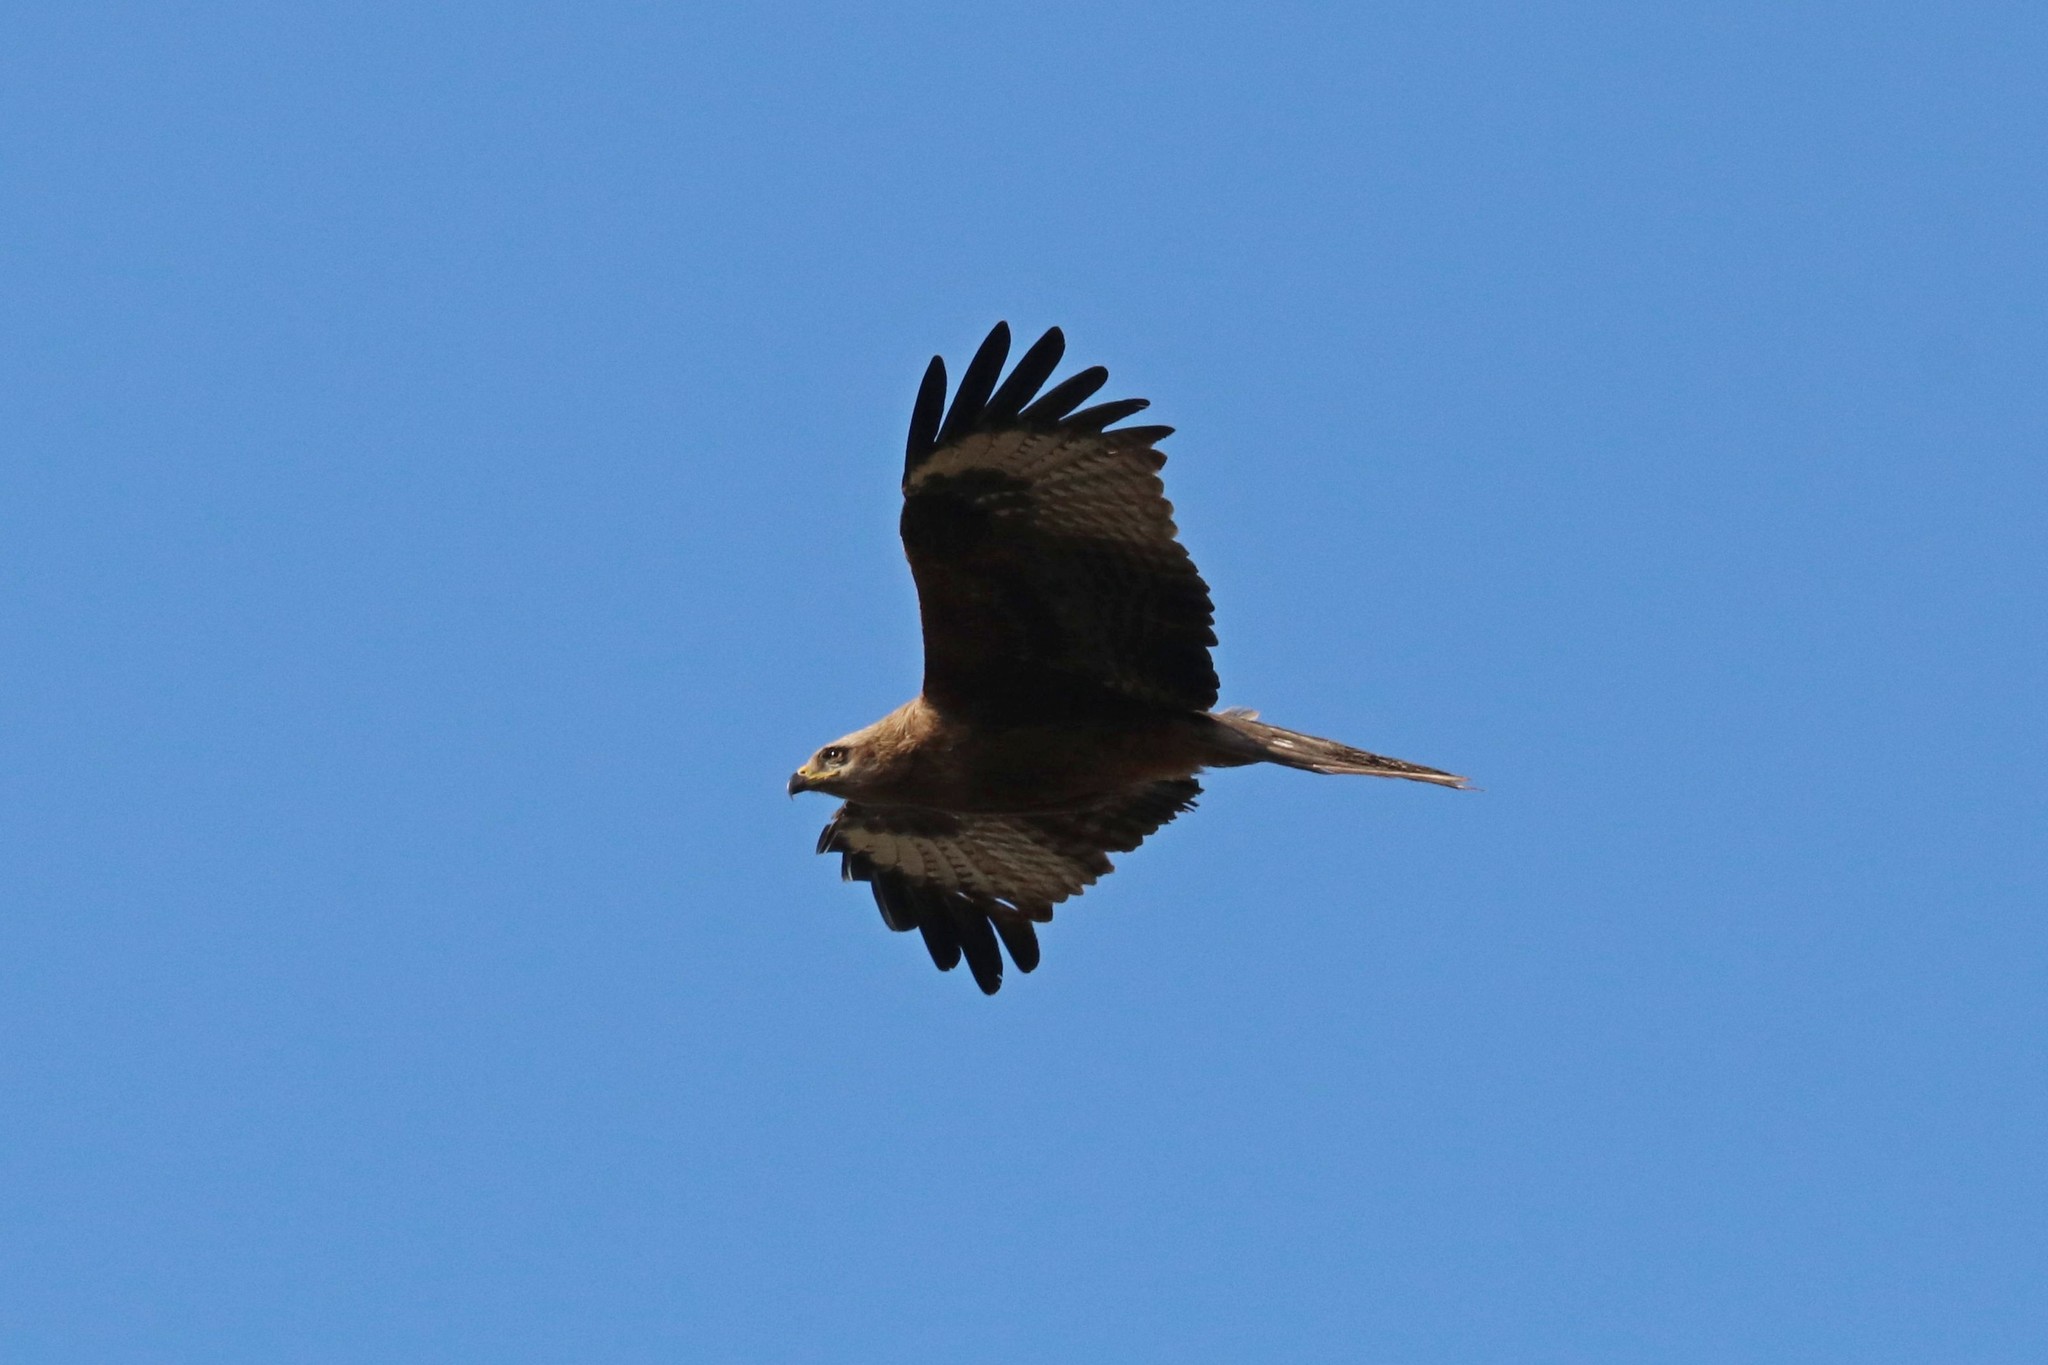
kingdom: Animalia
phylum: Chordata
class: Aves
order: Accipitriformes
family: Accipitridae
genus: Milvus
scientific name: Milvus migrans
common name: Black kite
